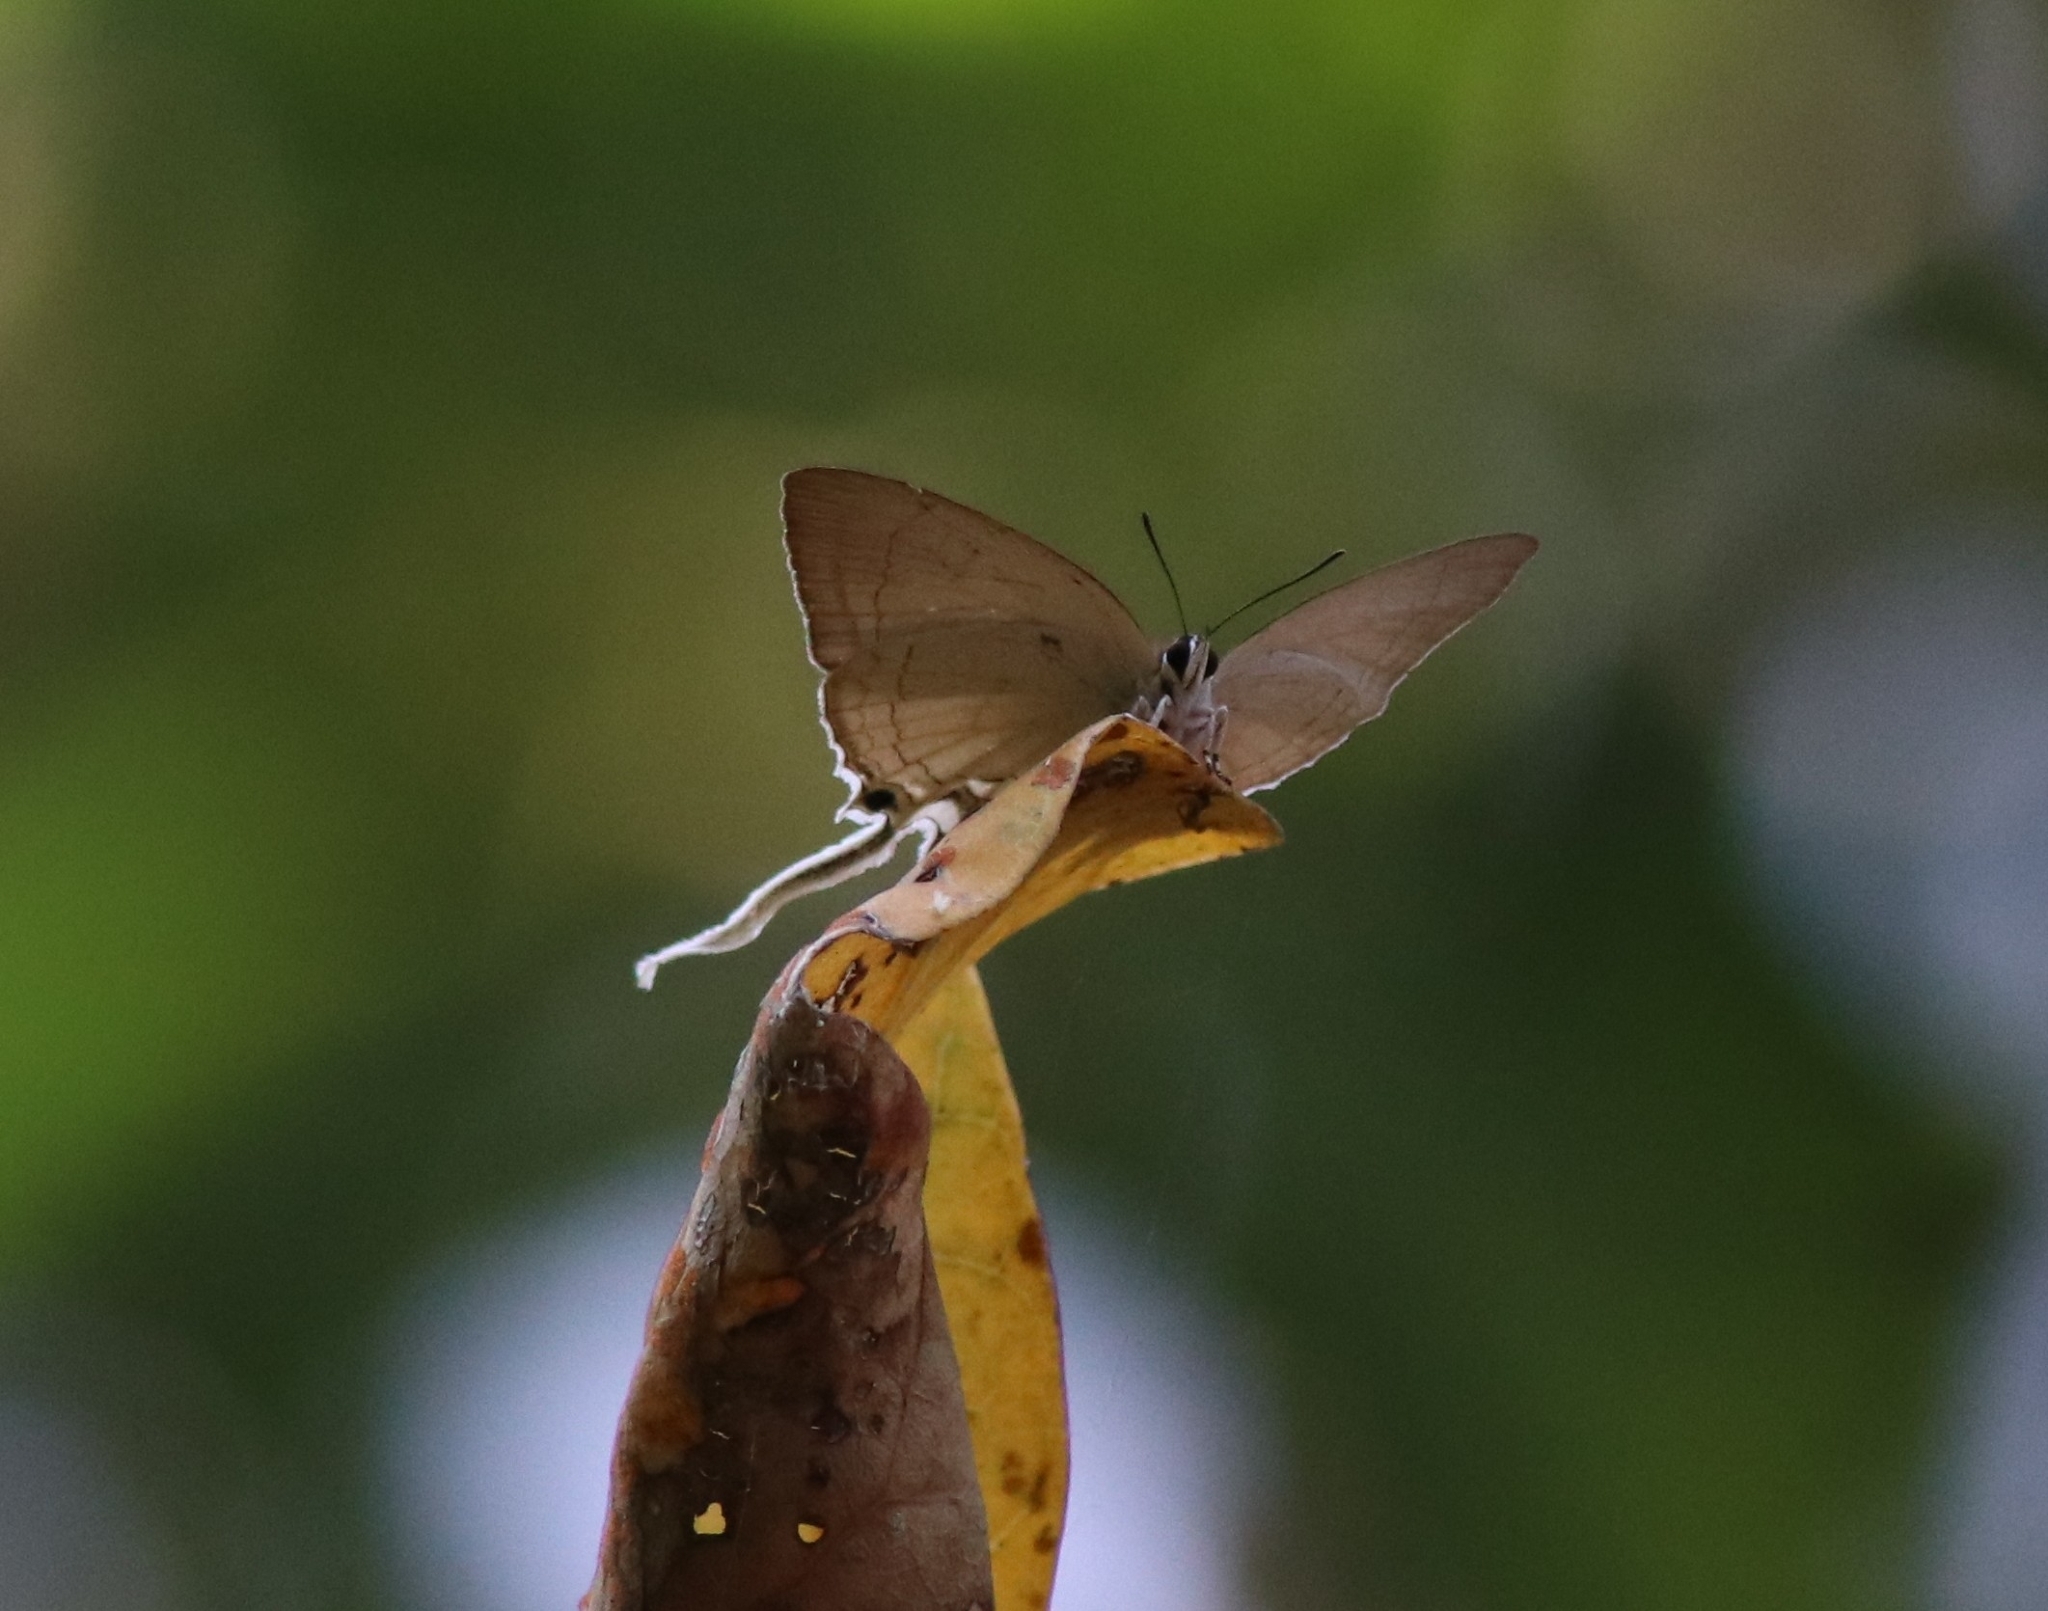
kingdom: Animalia
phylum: Arthropoda
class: Insecta
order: Lepidoptera
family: Lycaenidae
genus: Cheritra
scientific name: Cheritra freja
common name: Common imperial
